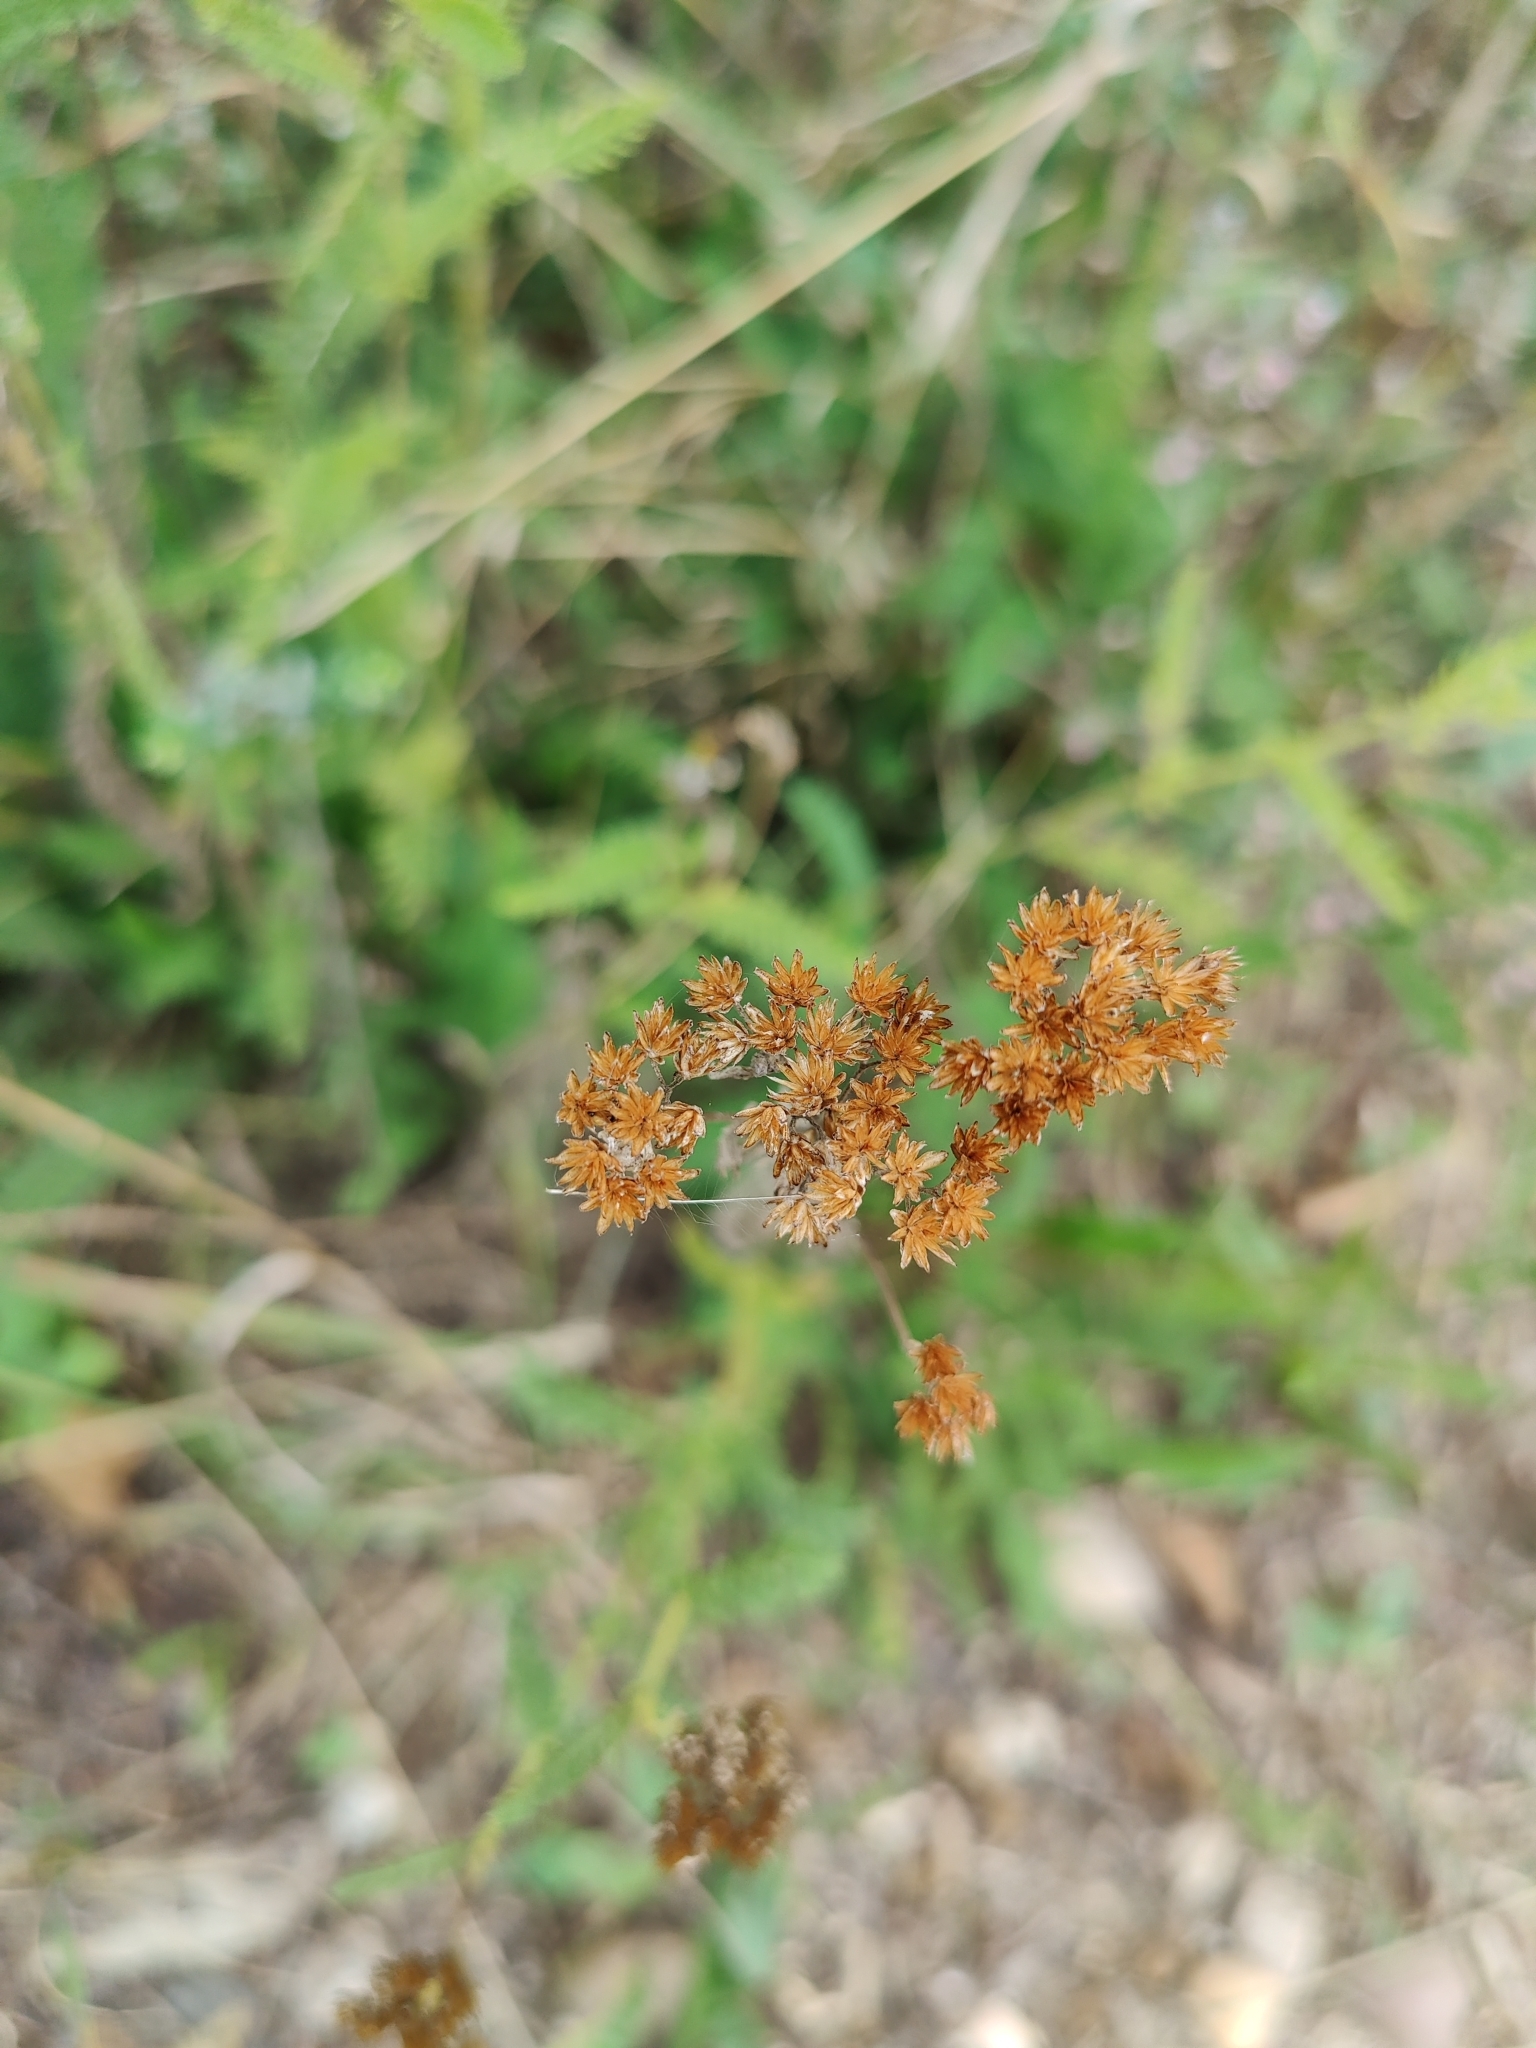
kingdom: Plantae
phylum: Tracheophyta
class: Magnoliopsida
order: Asterales
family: Asteraceae
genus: Achillea
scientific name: Achillea millefolium
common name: Yarrow
